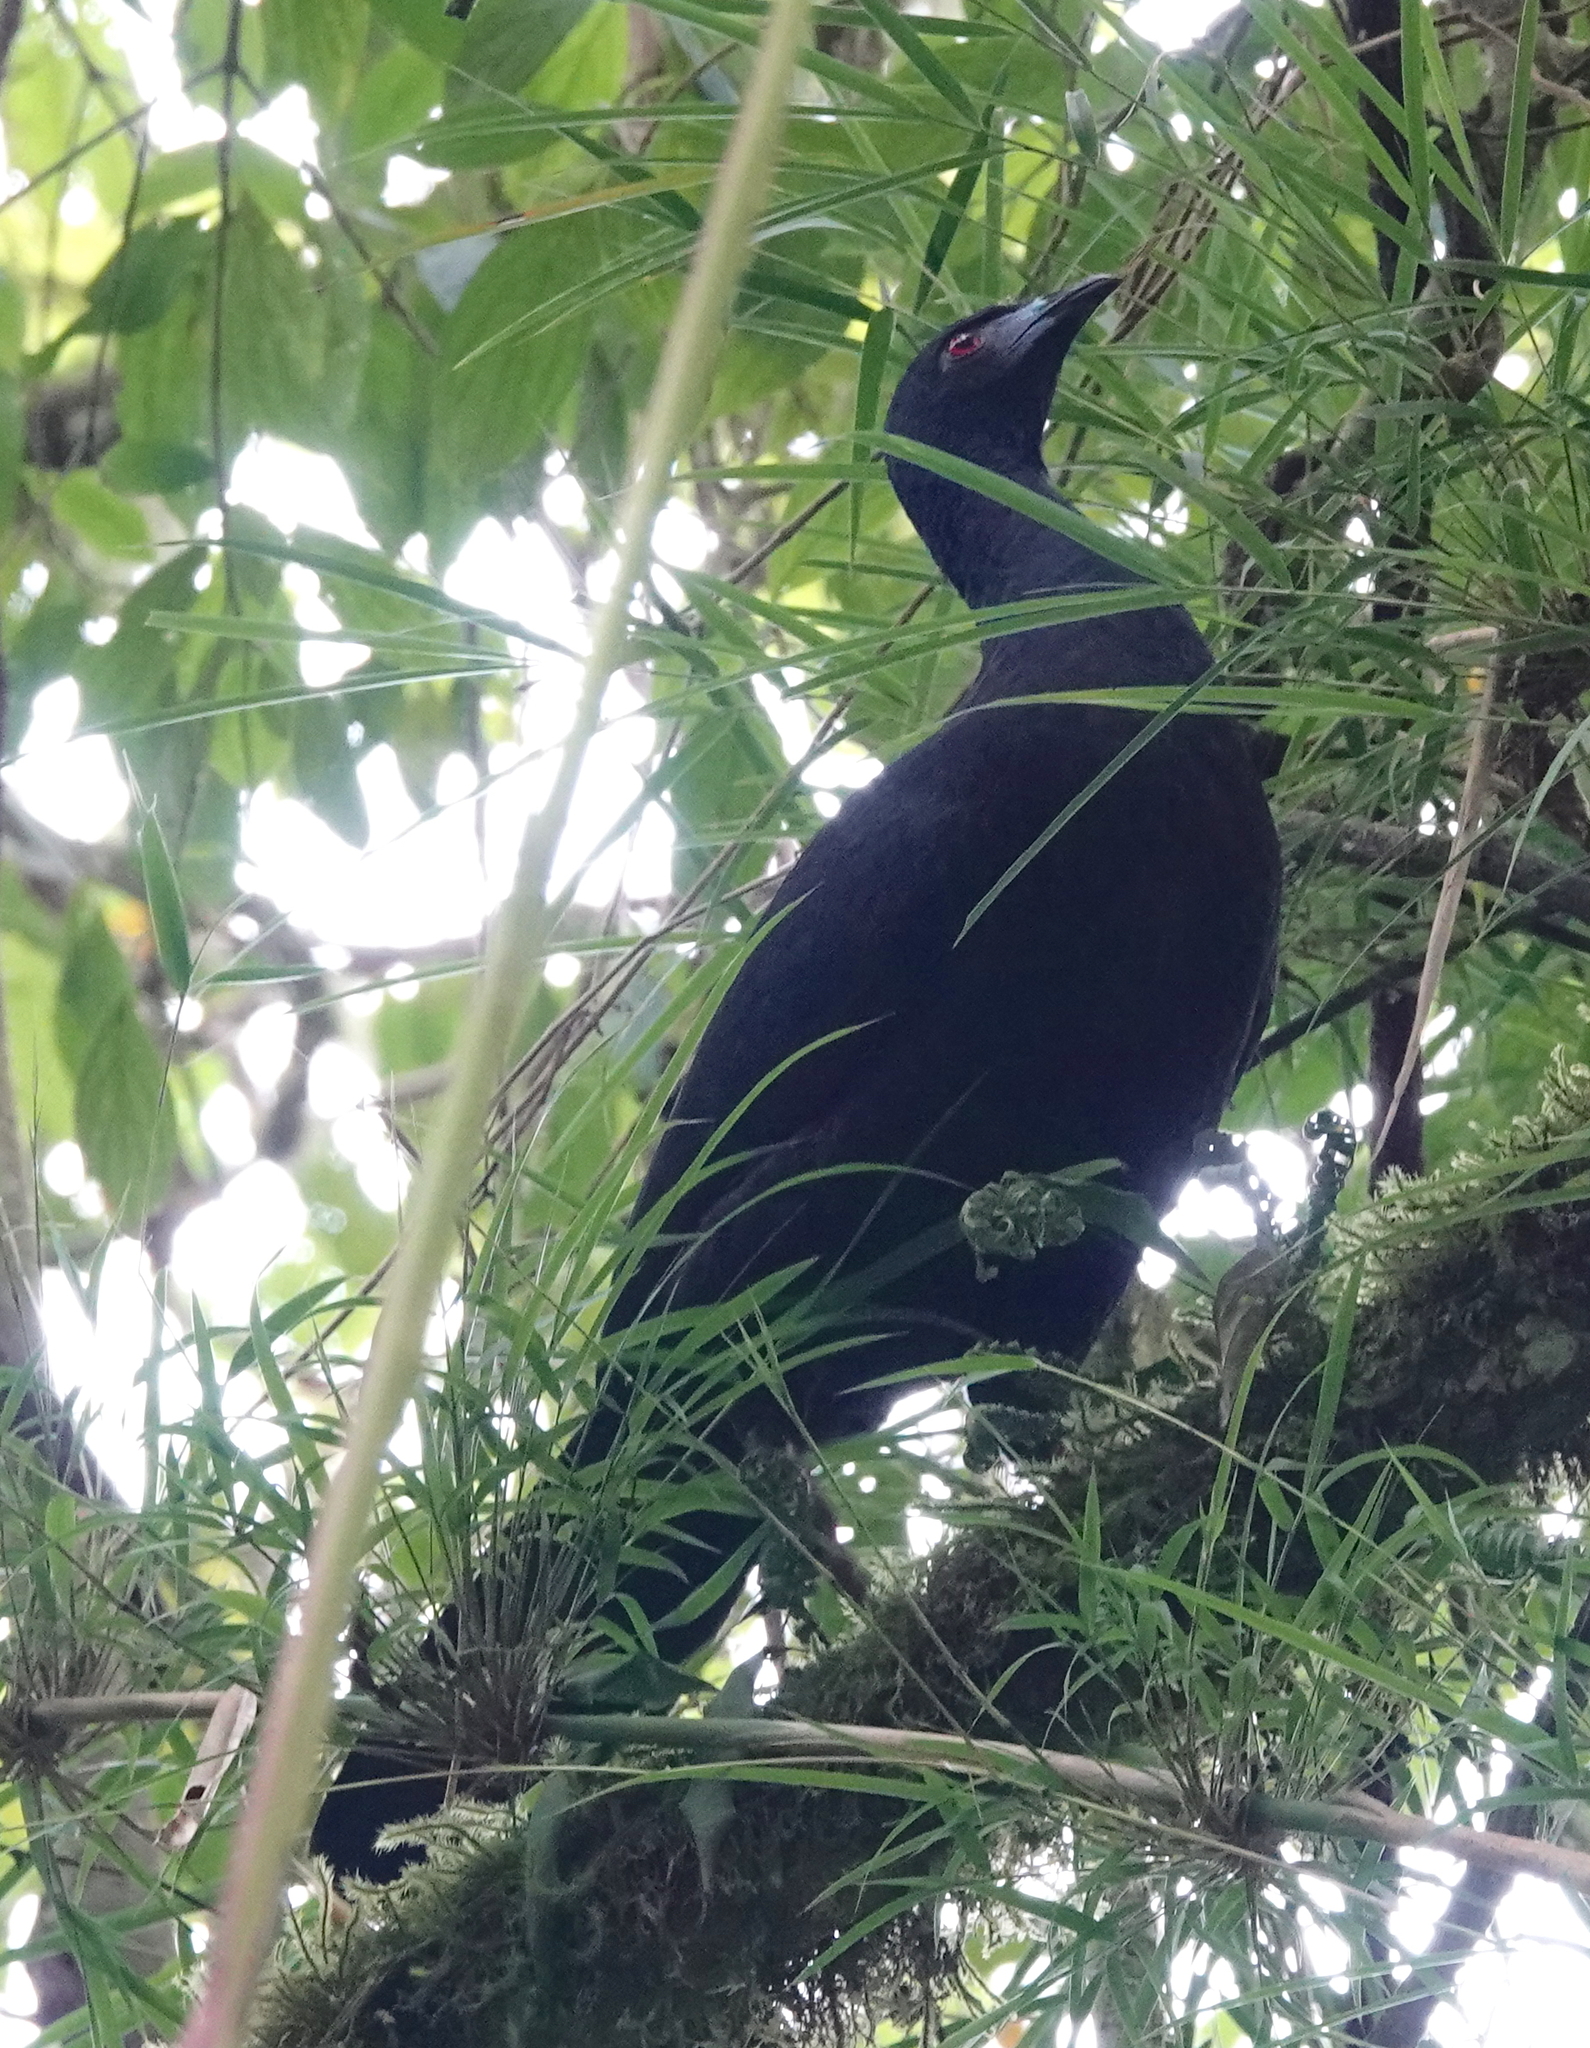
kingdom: Animalia
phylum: Chordata
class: Aves
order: Galliformes
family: Cracidae
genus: Chamaepetes
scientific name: Chamaepetes unicolor
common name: Black guan
